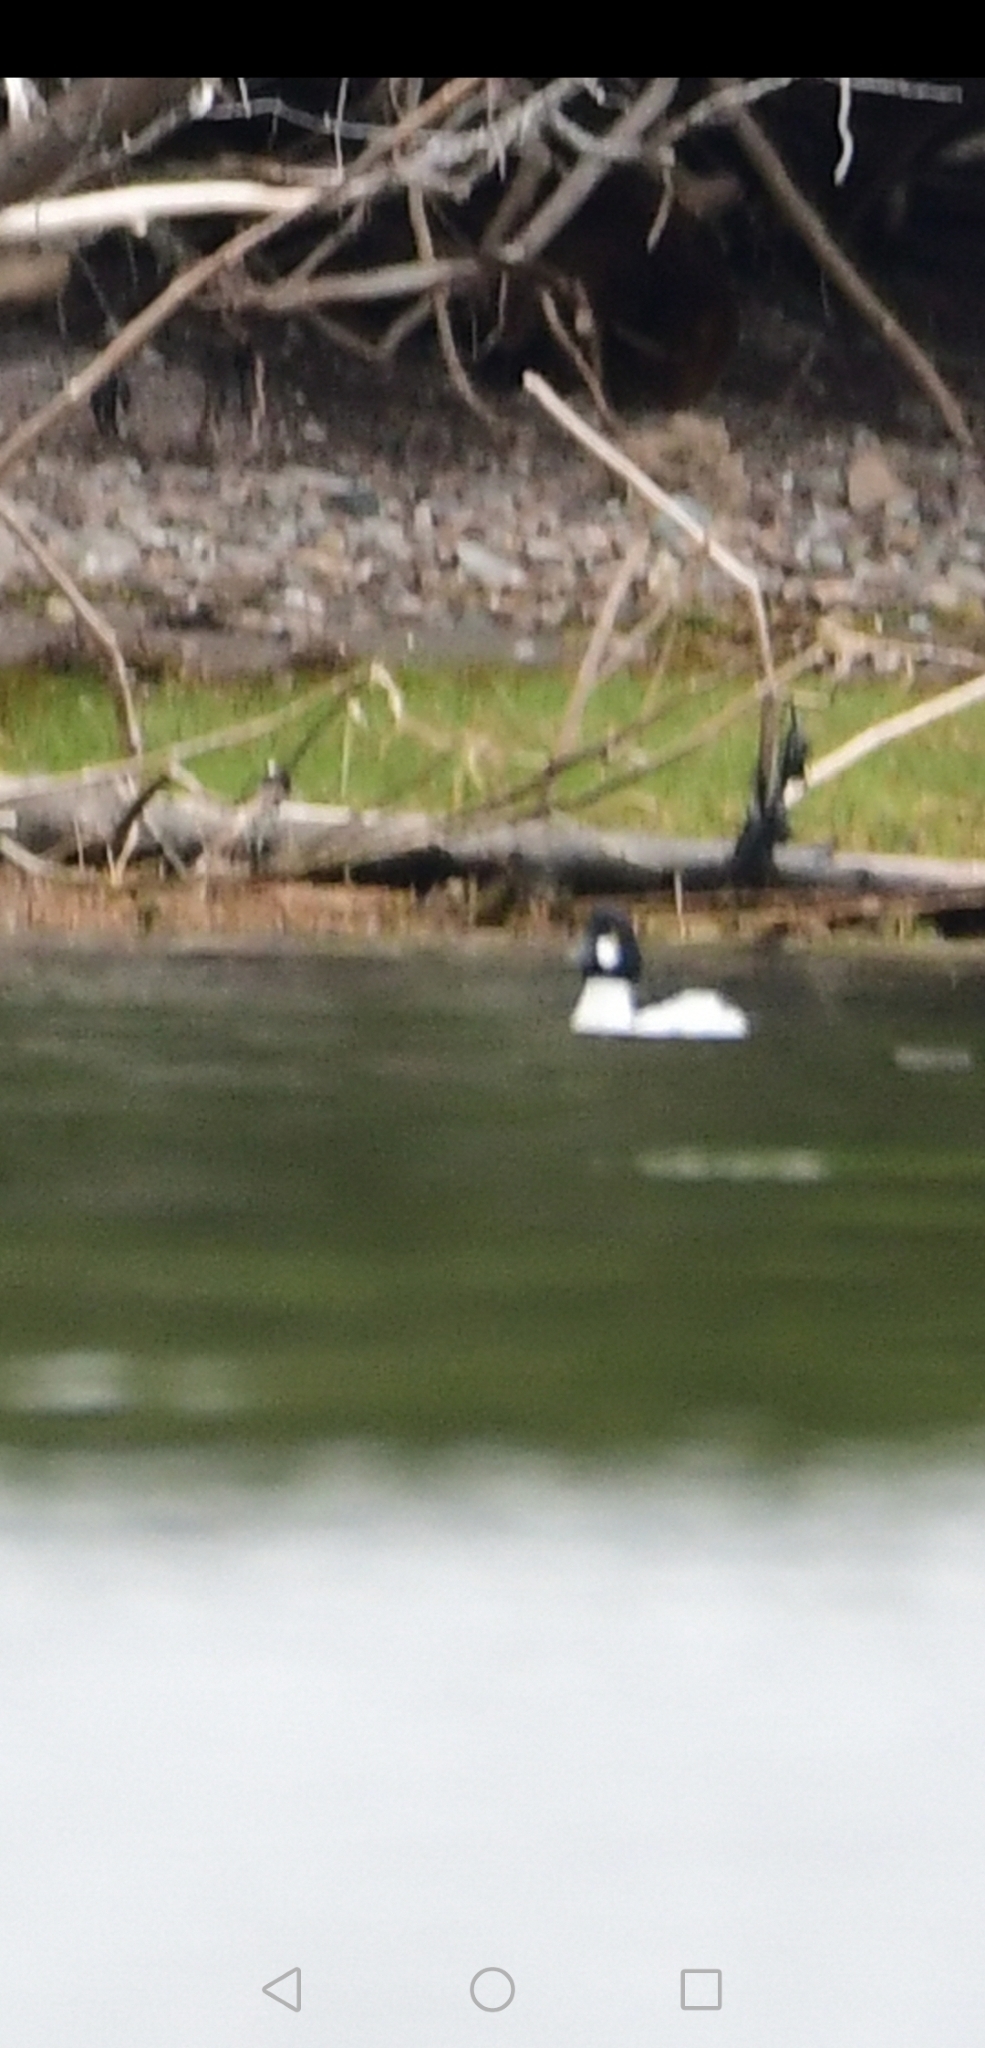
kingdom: Animalia
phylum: Chordata
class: Aves
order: Anseriformes
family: Anatidae
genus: Bucephala
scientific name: Bucephala clangula
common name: Common goldeneye
